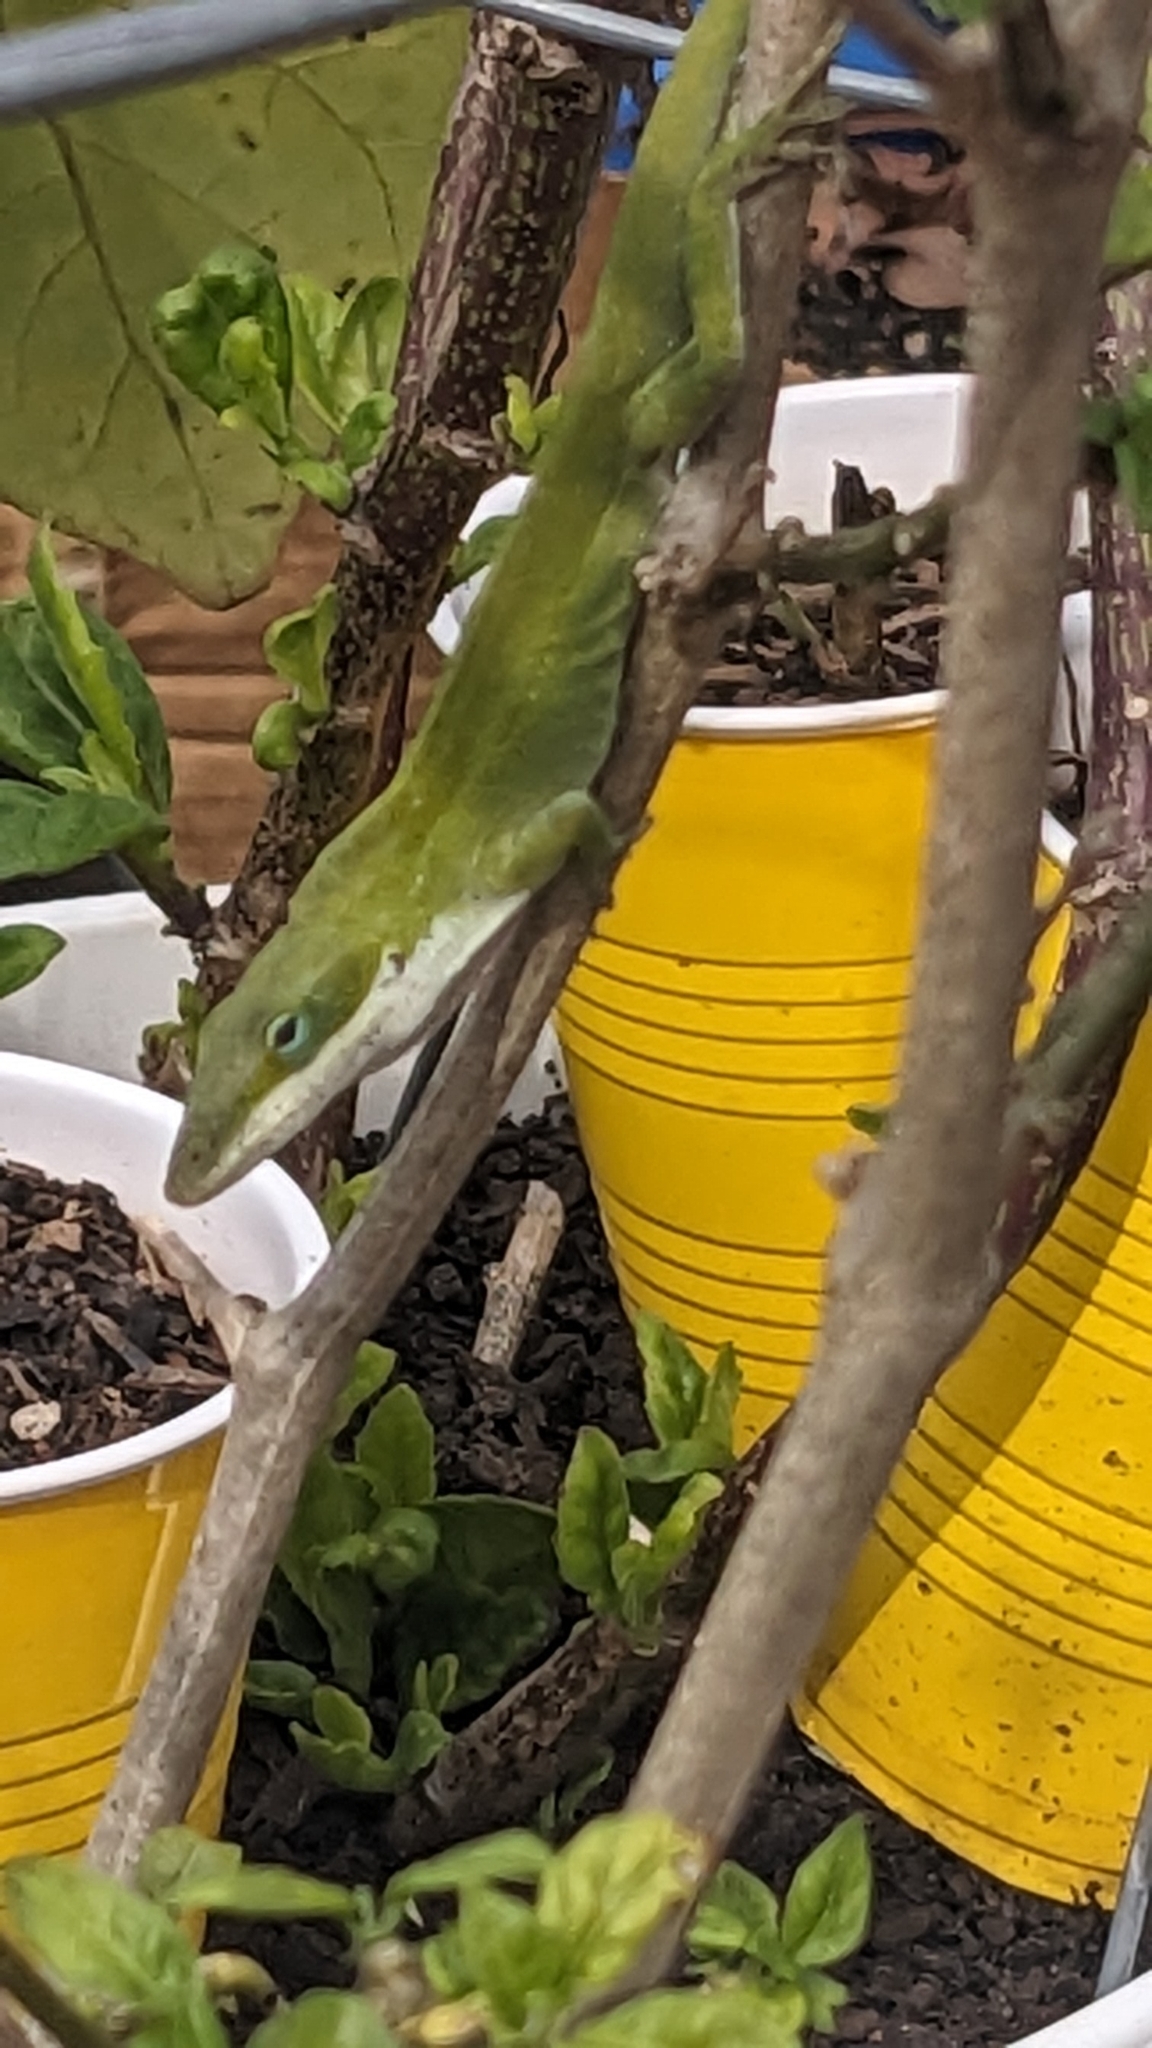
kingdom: Animalia
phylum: Chordata
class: Squamata
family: Dactyloidae
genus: Anolis
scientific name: Anolis carolinensis
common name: Green anole
